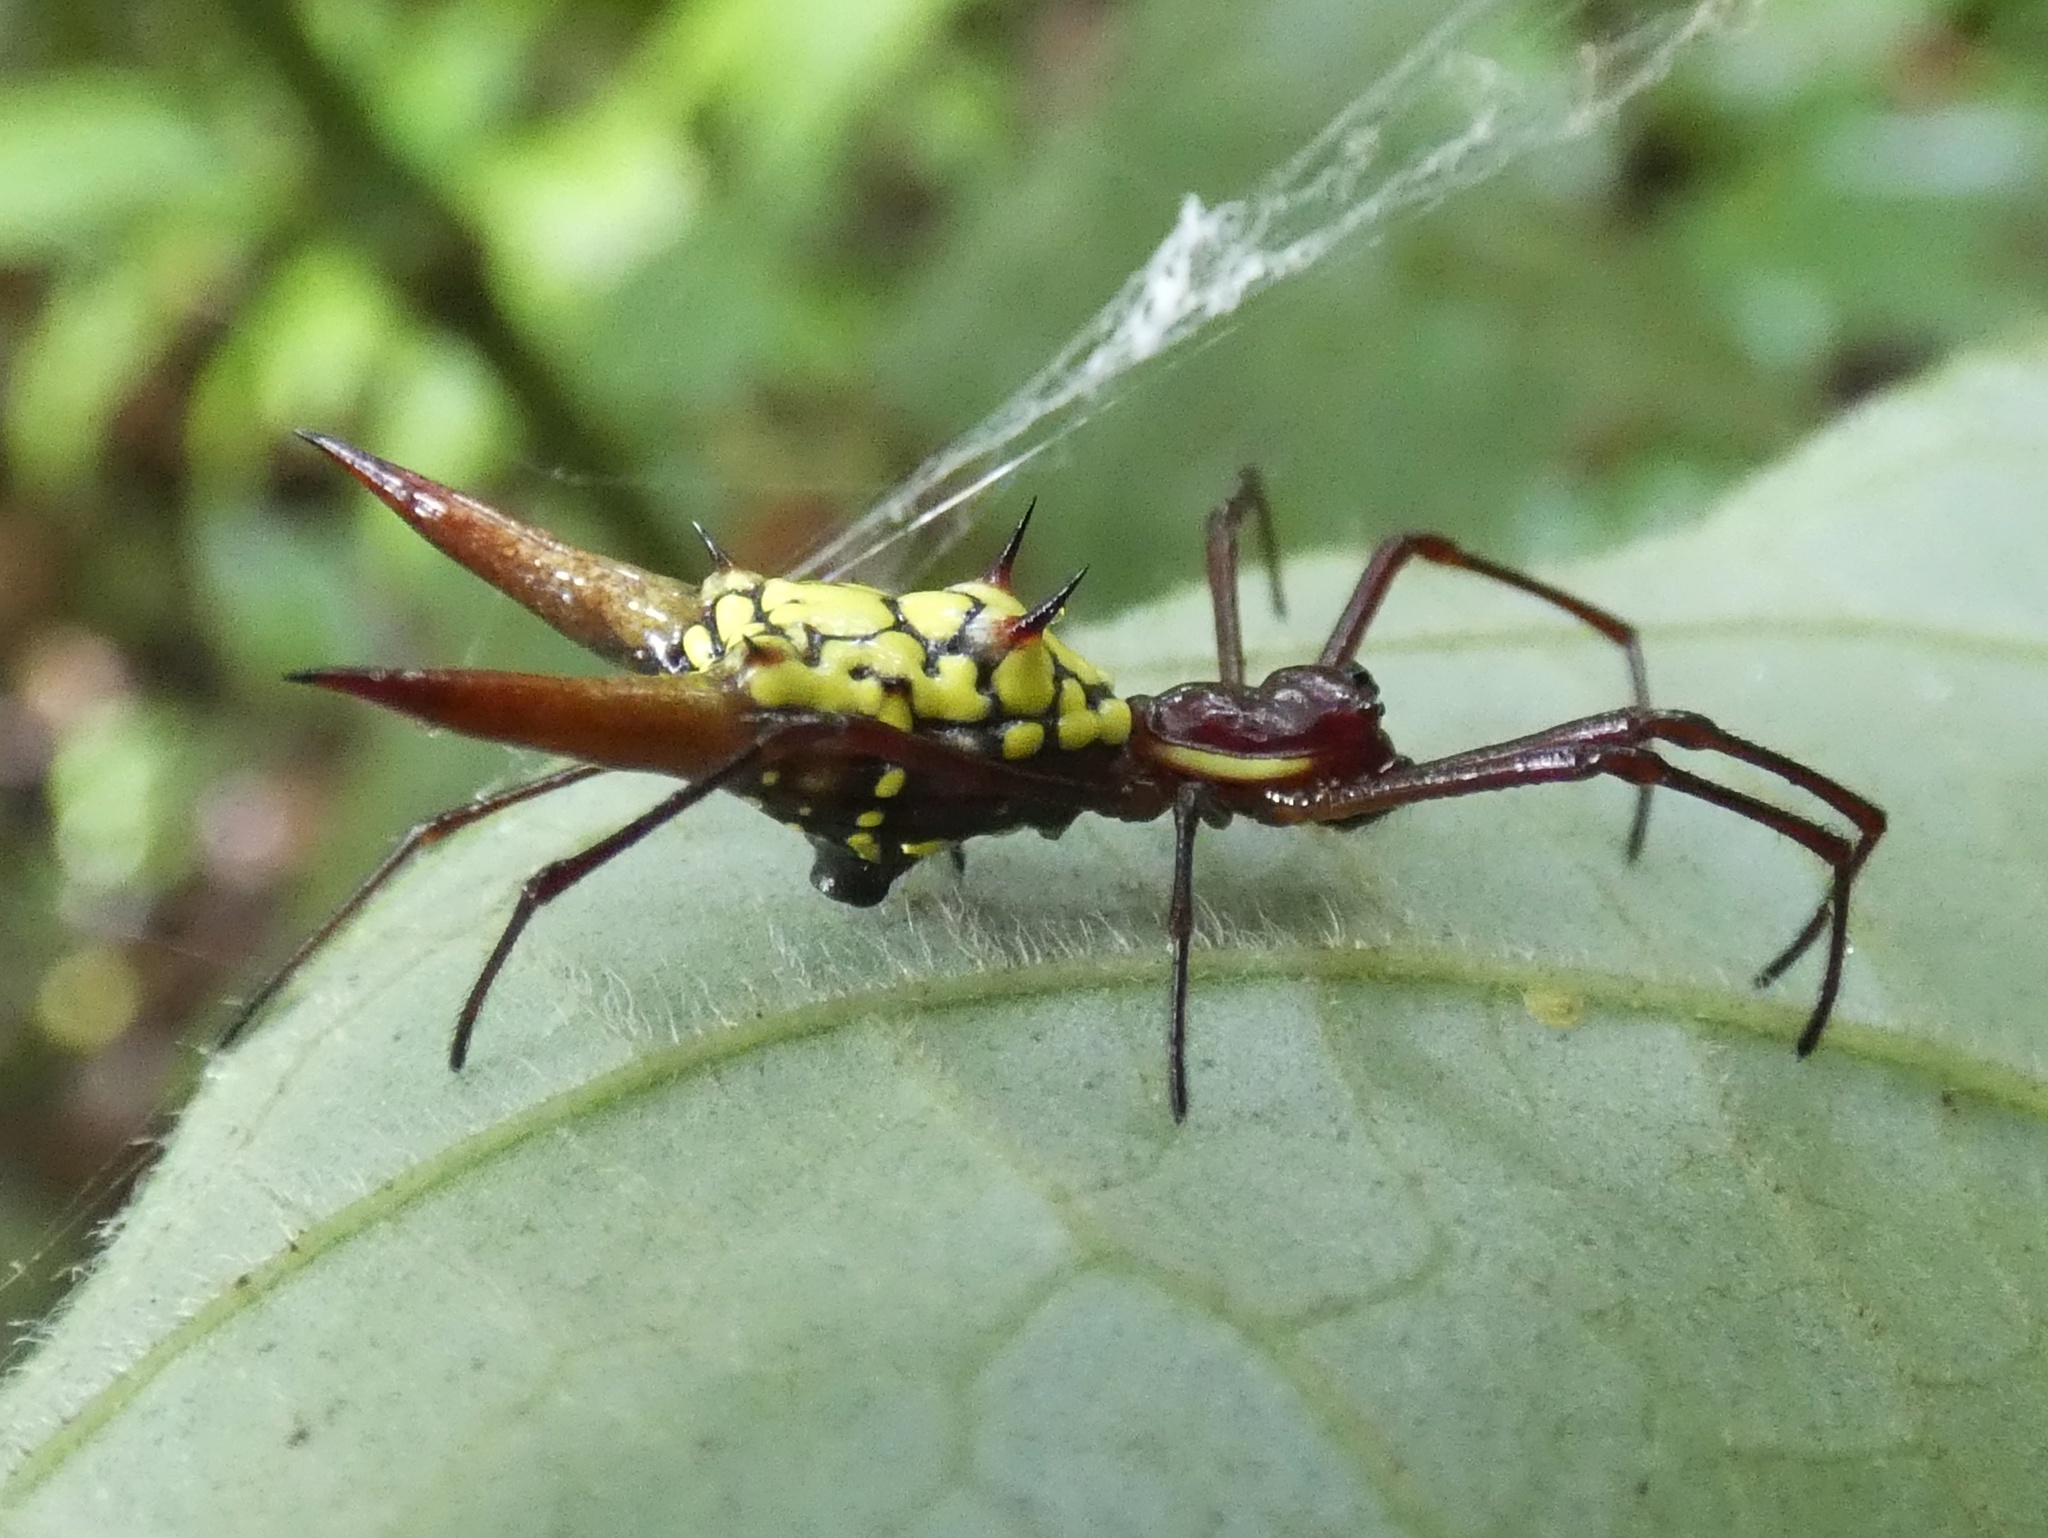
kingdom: Animalia
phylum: Arthropoda
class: Arachnida
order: Araneae
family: Araneidae
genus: Micrathena
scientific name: Micrathena donaldi
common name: Orb weavers
